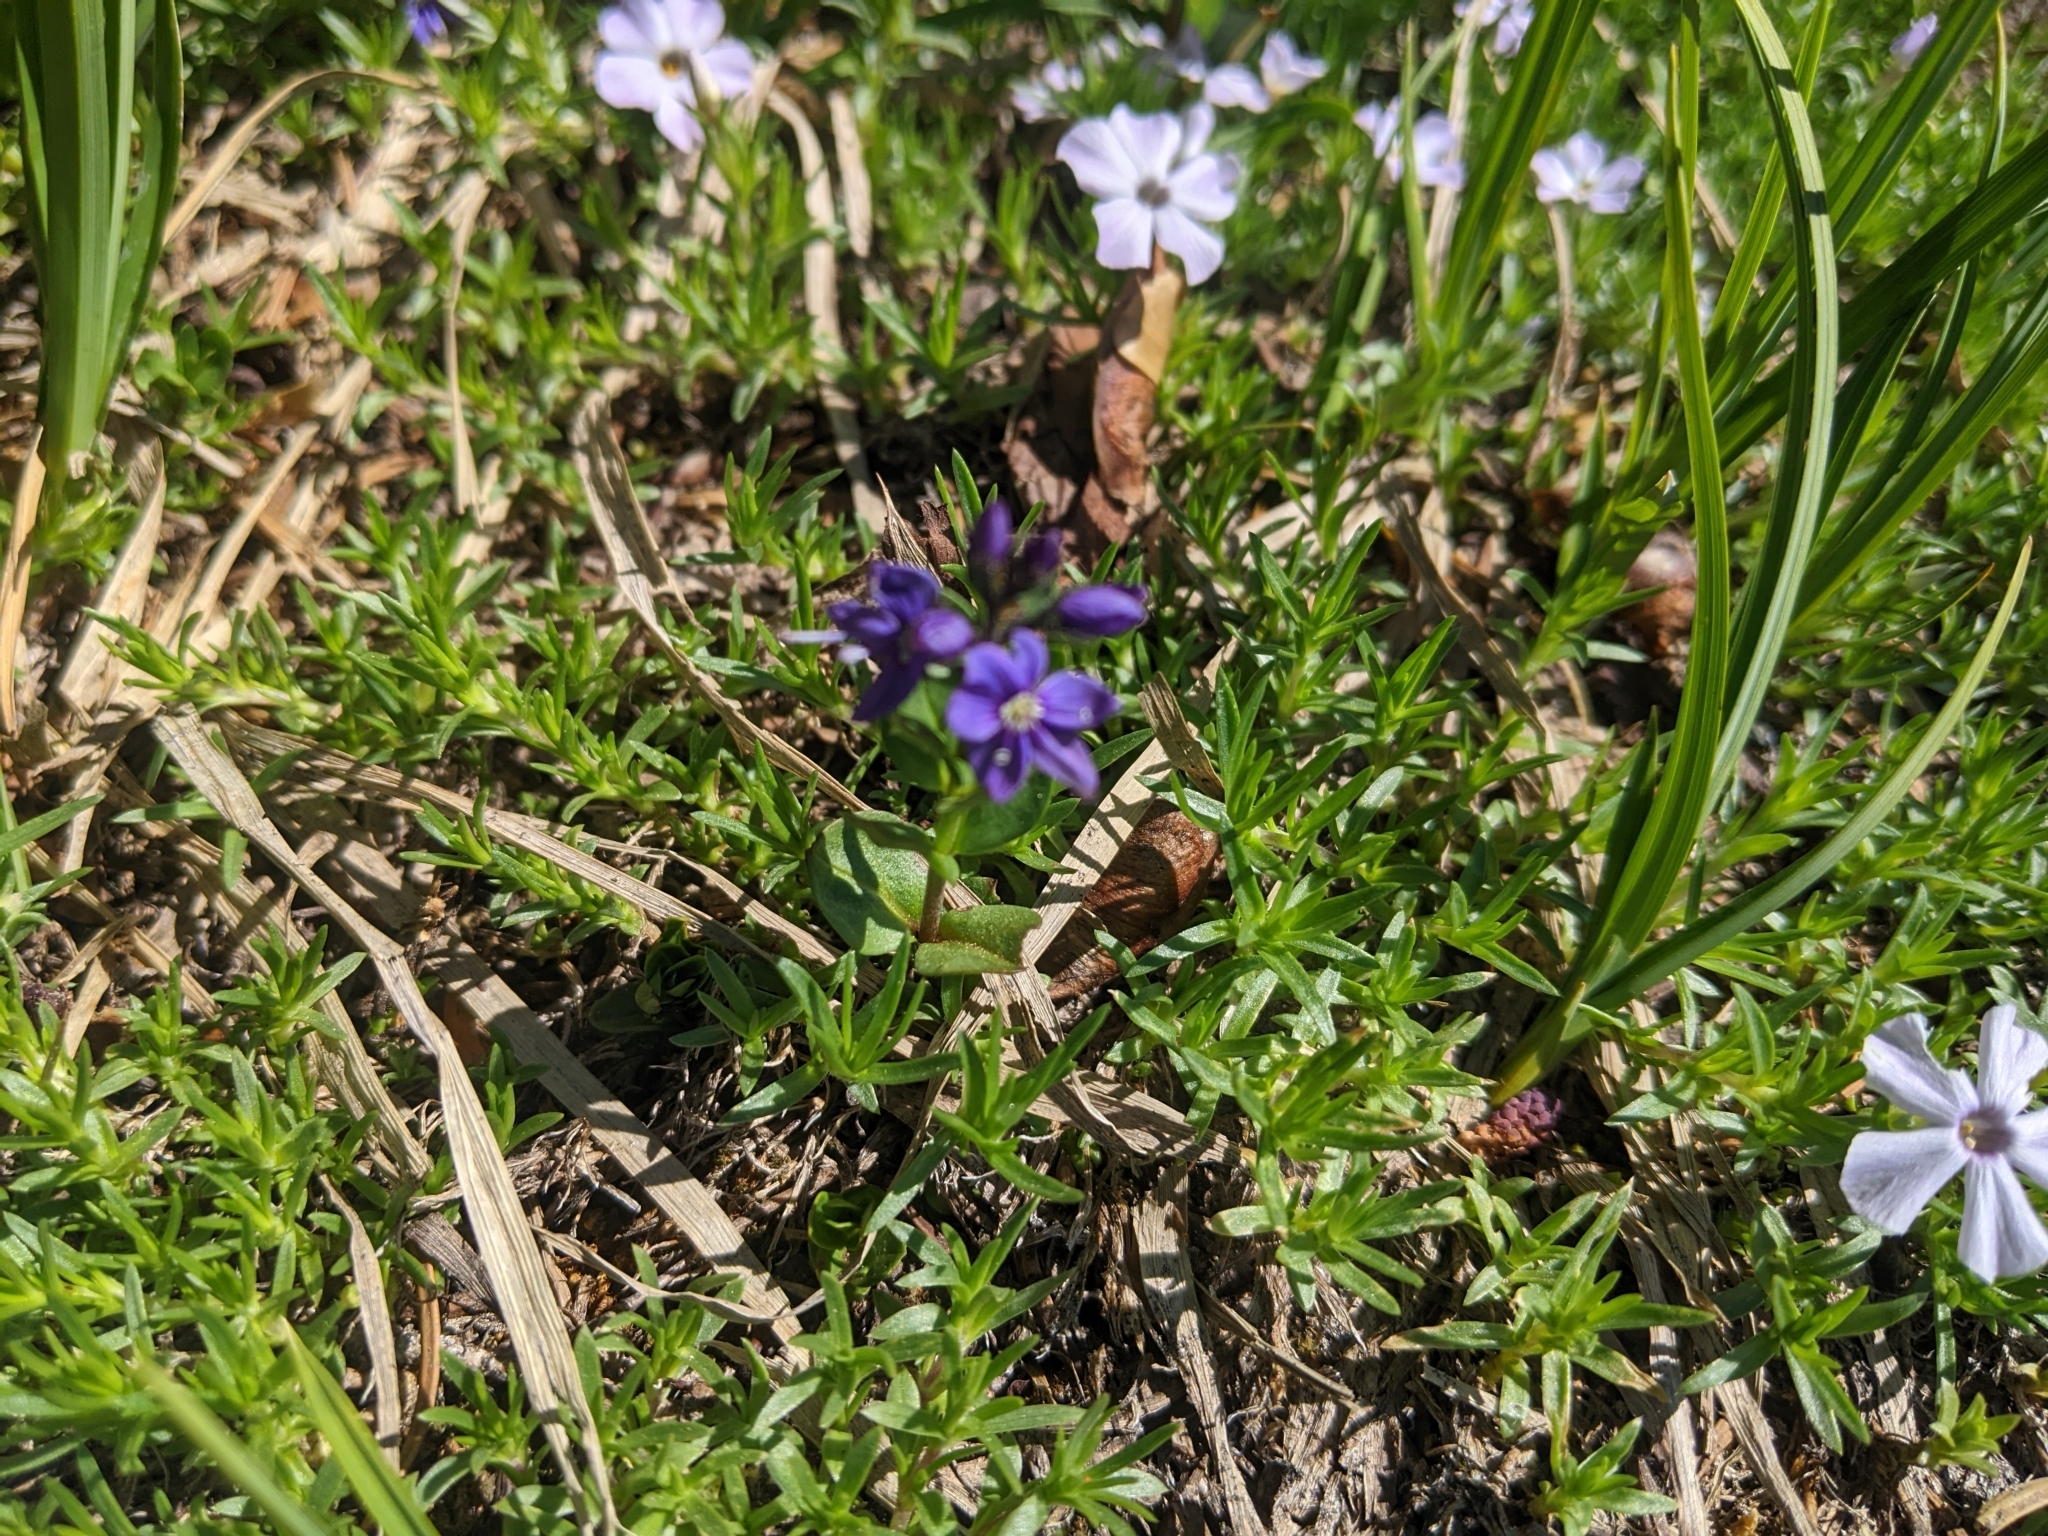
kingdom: Plantae
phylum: Tracheophyta
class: Magnoliopsida
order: Lamiales
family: Plantaginaceae
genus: Veronica
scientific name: Veronica cusickii
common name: Cusick's speedwell
